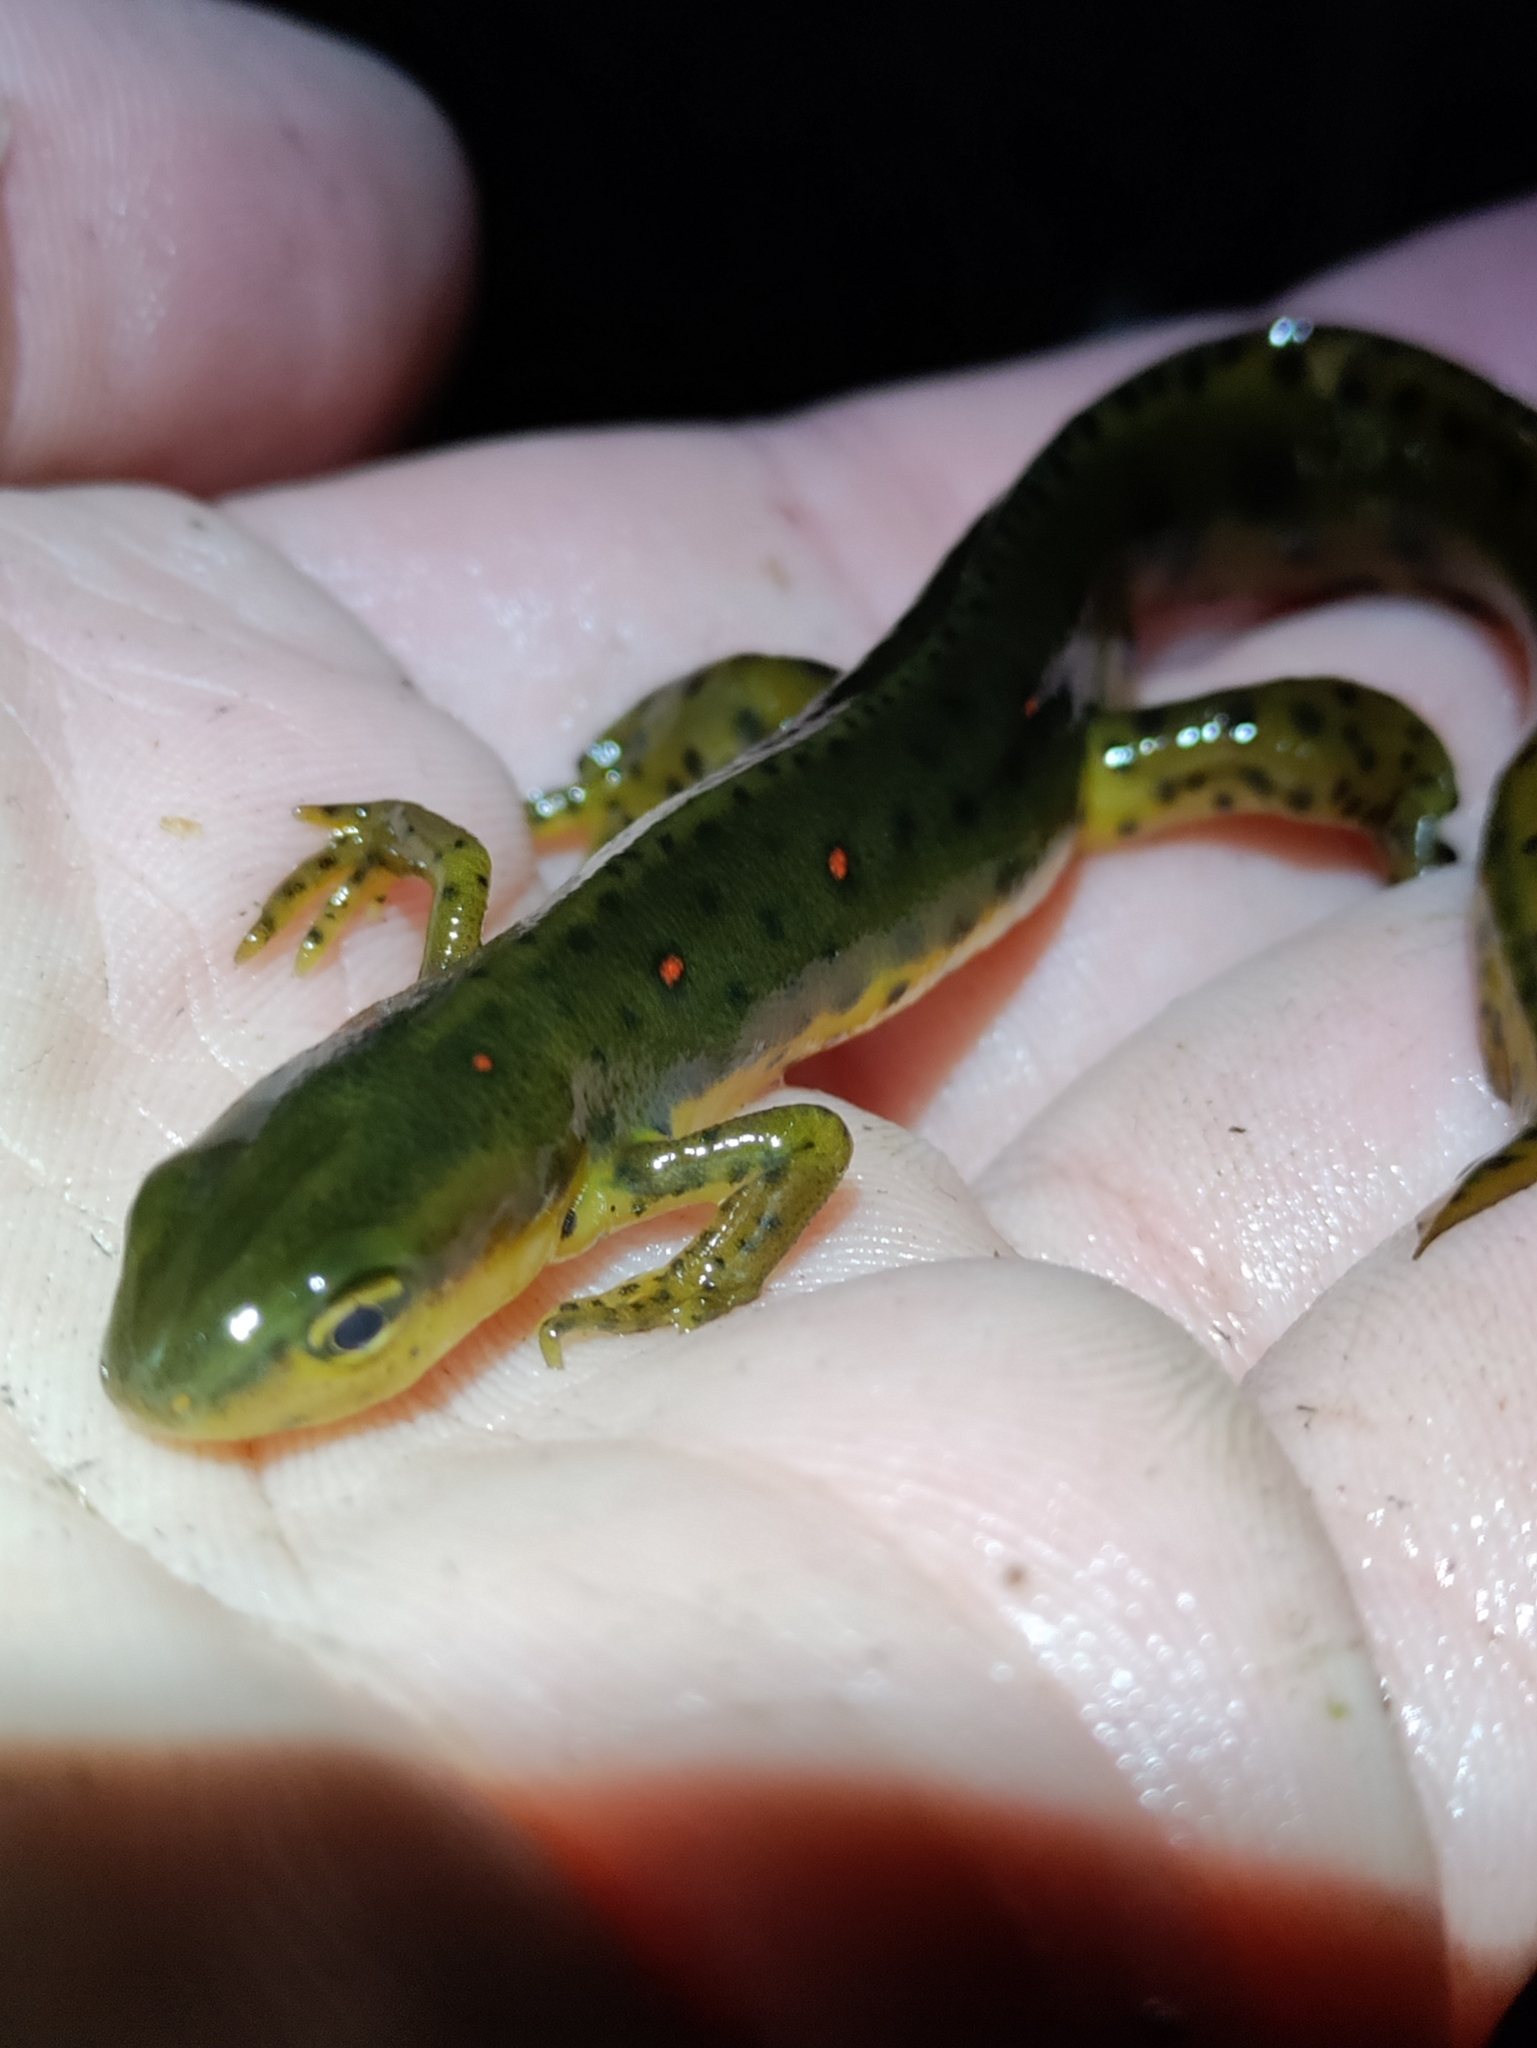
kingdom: Animalia
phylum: Chordata
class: Amphibia
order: Caudata
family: Salamandridae
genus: Notophthalmus
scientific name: Notophthalmus viridescens
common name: Eastern newt
